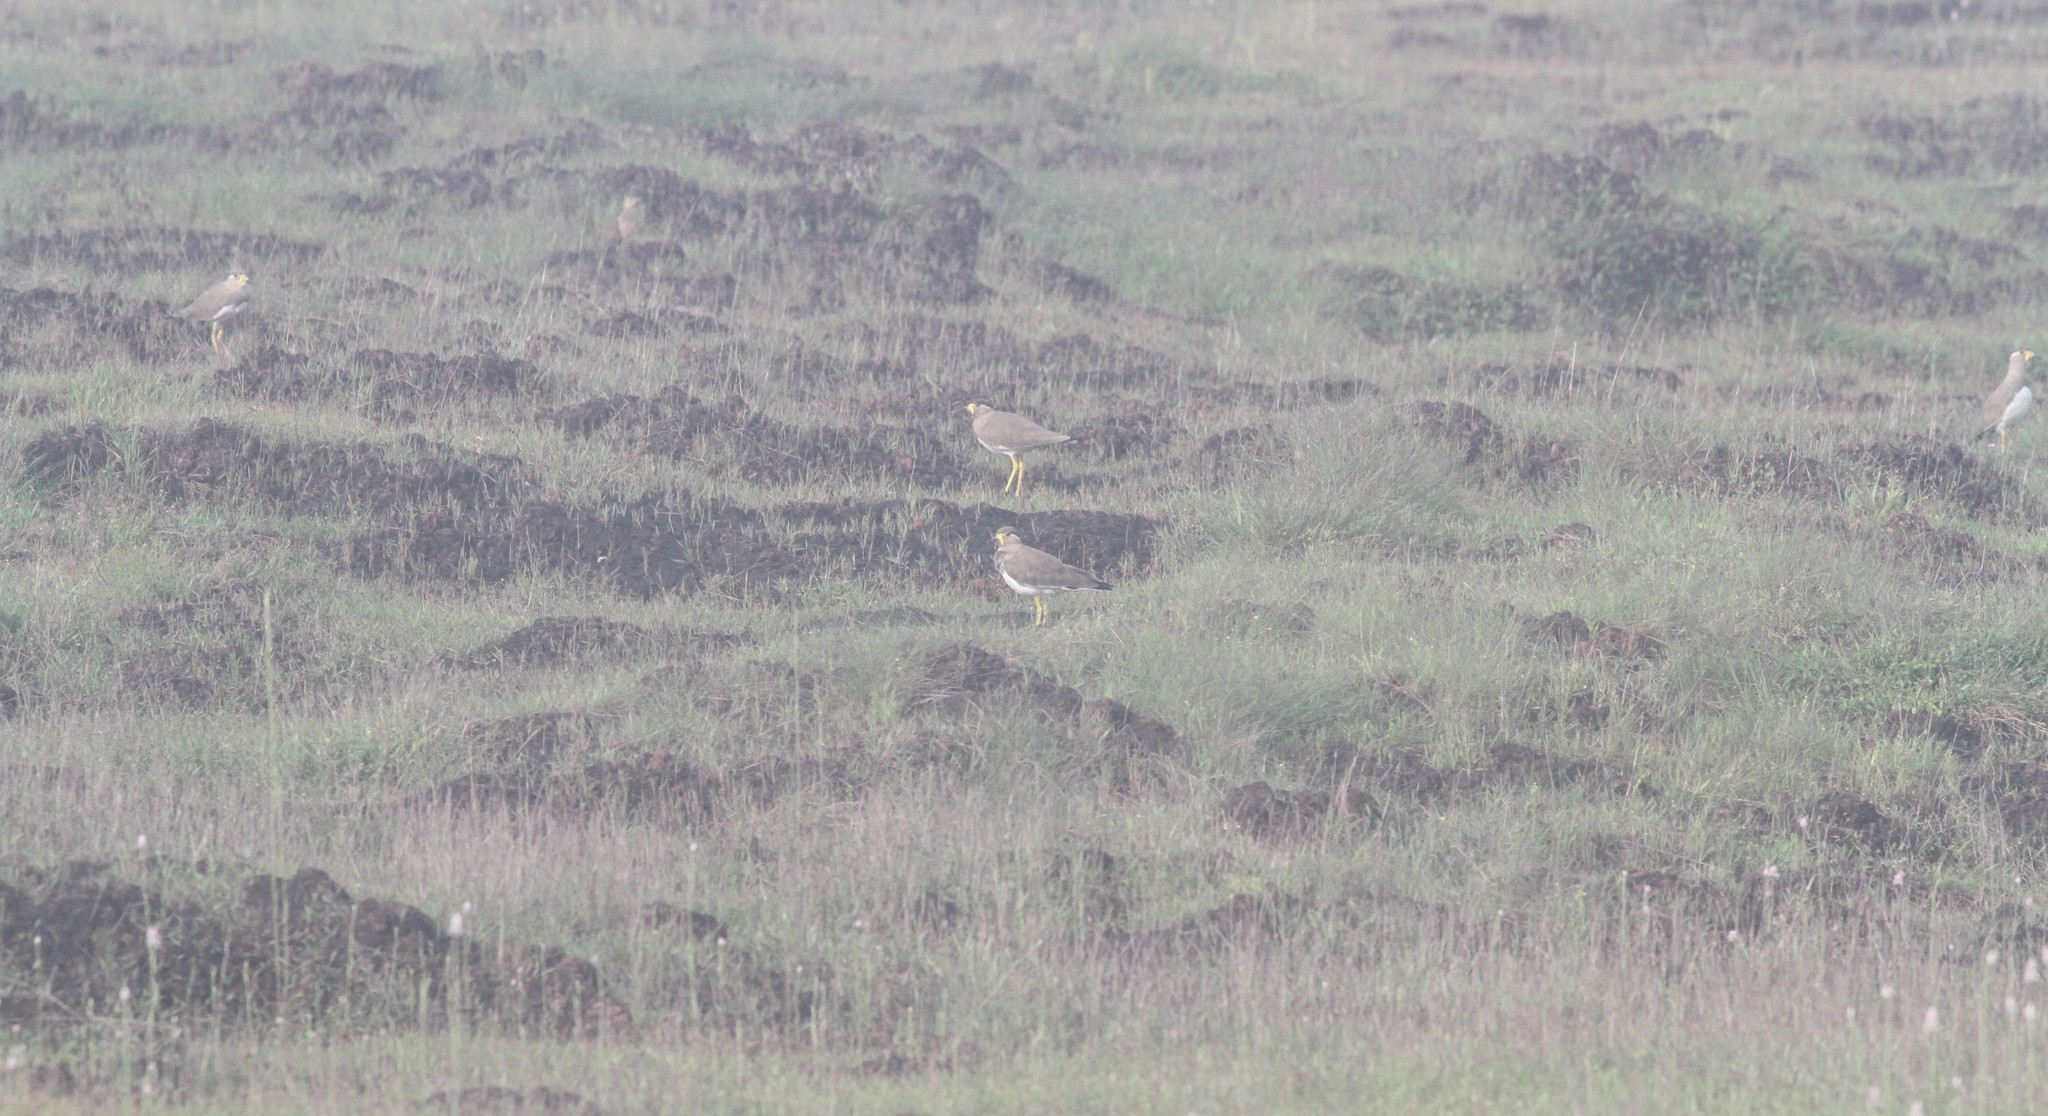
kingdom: Animalia
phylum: Chordata
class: Aves
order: Charadriiformes
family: Charadriidae
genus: Vanellus
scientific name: Vanellus malabaricus
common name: Yellow-wattled lapwing
